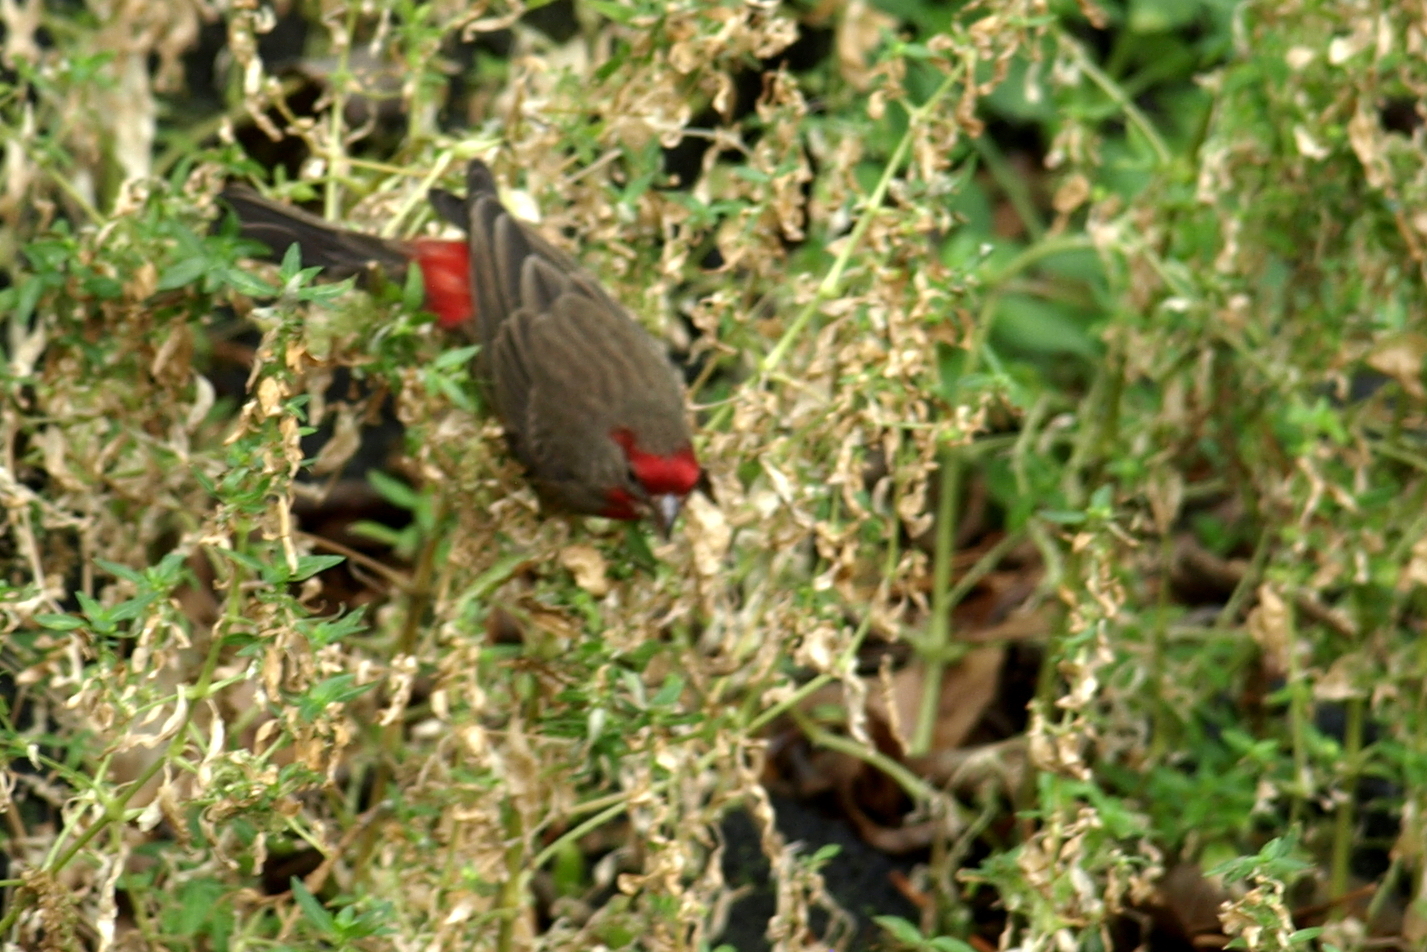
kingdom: Animalia
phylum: Chordata
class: Aves
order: Passeriformes
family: Fringillidae
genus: Haemorhous
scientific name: Haemorhous mexicanus
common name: House finch
